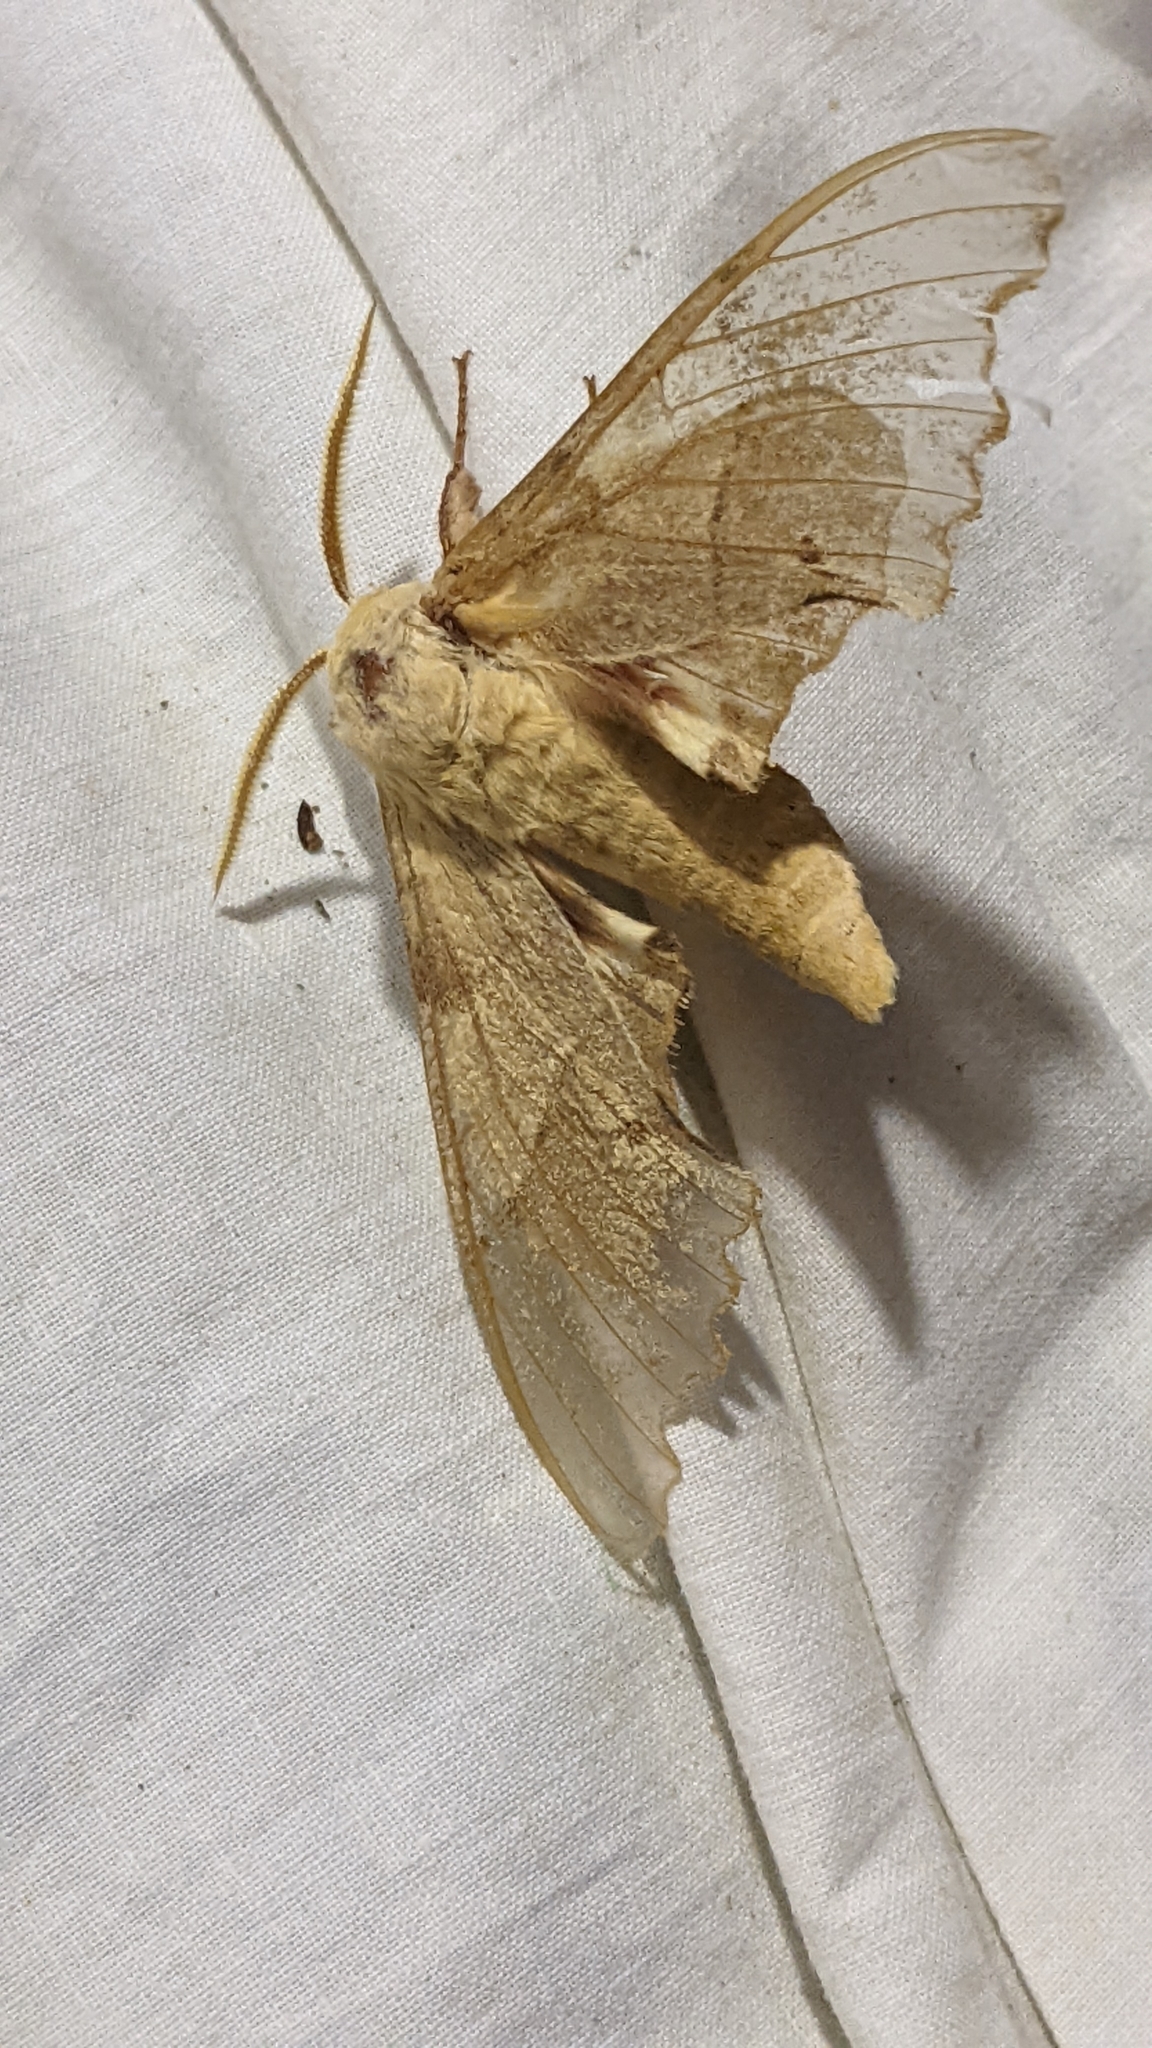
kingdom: Animalia
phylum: Arthropoda
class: Insecta
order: Lepidoptera
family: Sphingidae
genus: Marumba
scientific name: Marumba quercus
